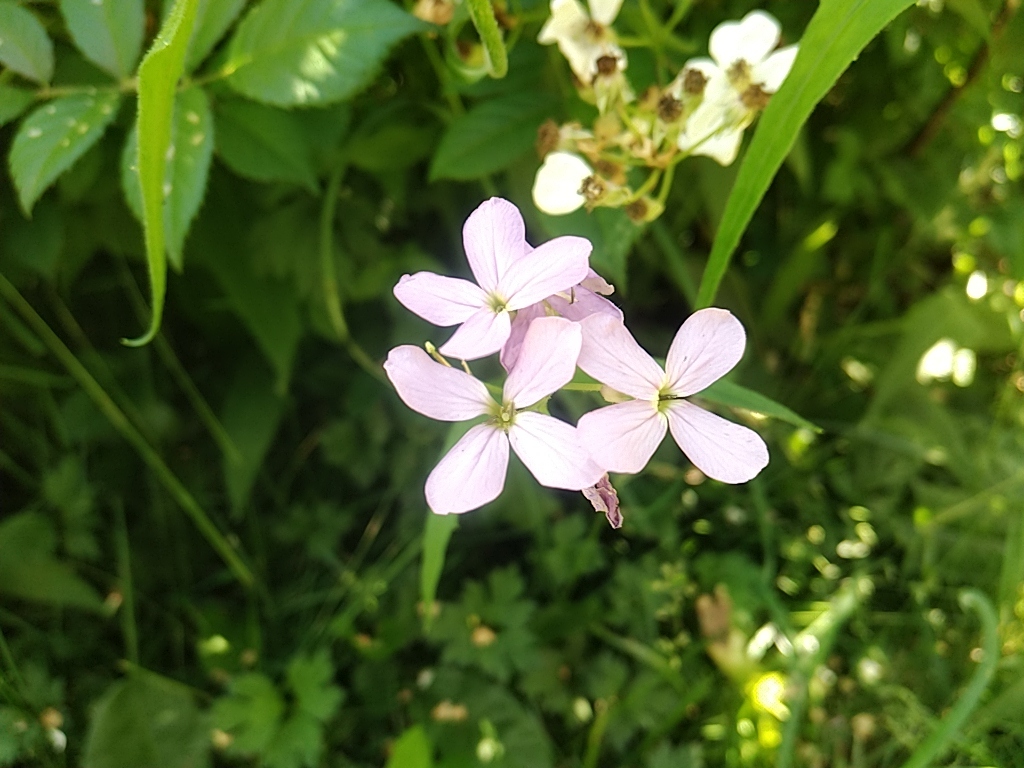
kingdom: Plantae
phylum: Tracheophyta
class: Magnoliopsida
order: Brassicales
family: Brassicaceae
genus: Cardamine
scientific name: Cardamine pratensis
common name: Cuckoo flower
